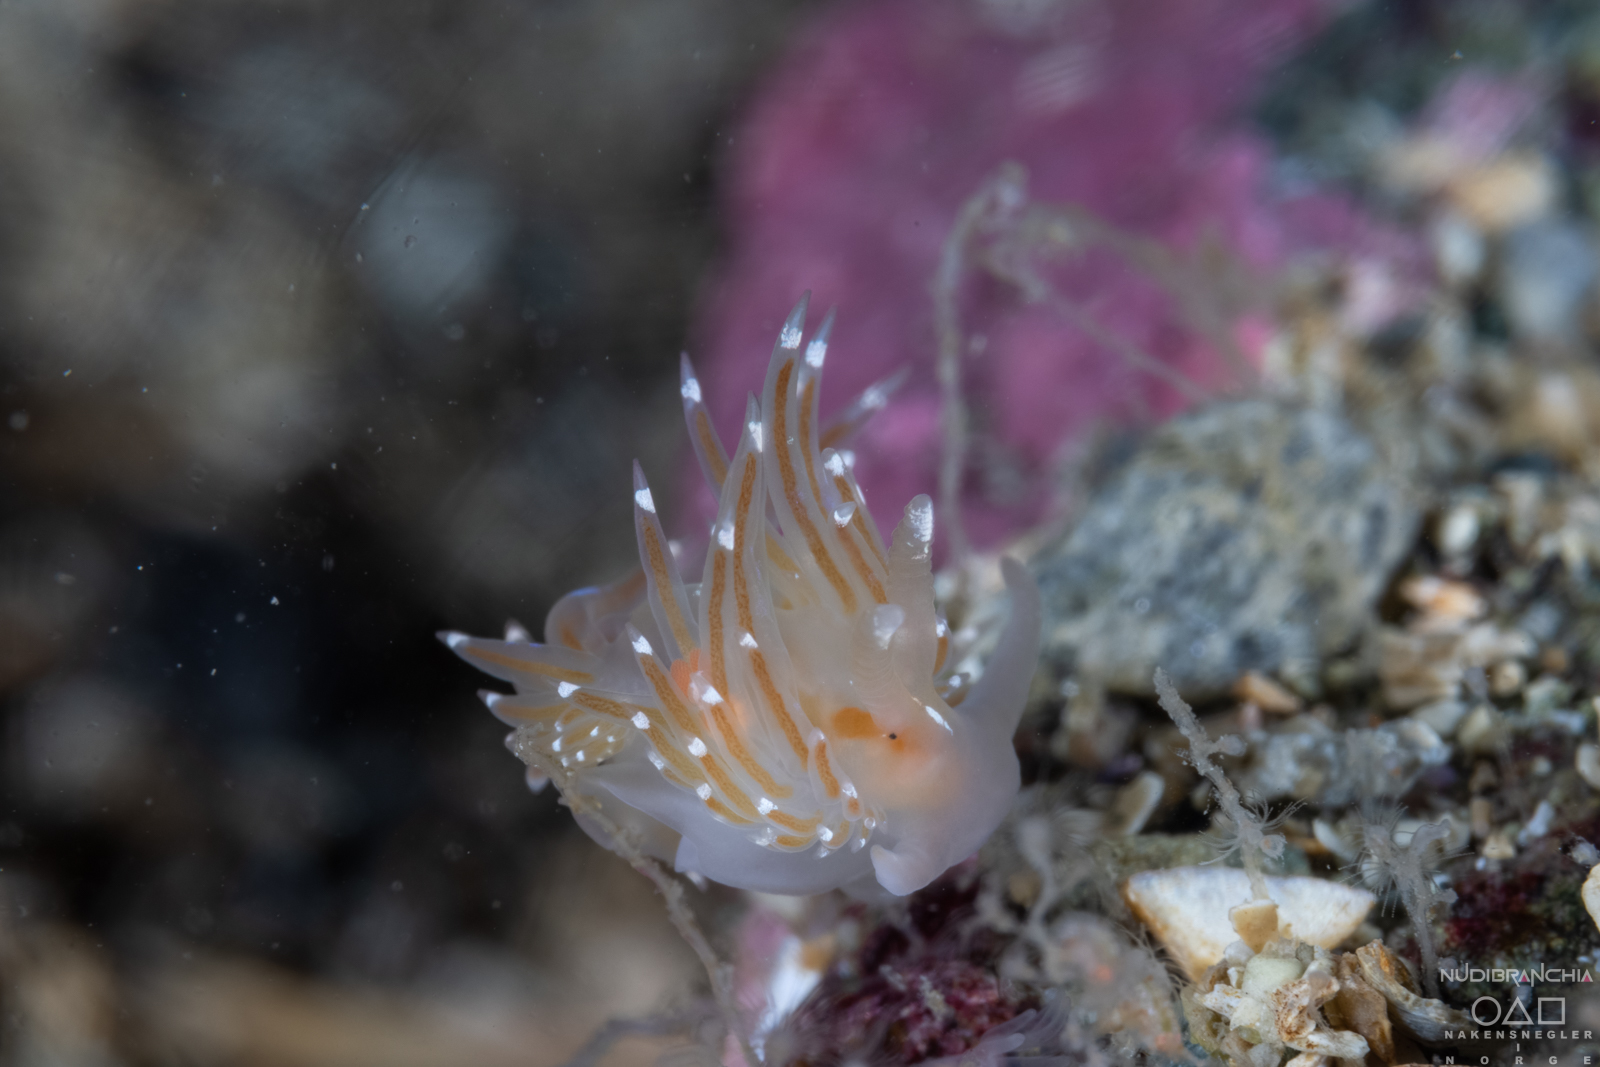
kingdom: Animalia
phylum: Mollusca
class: Gastropoda
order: Nudibranchia
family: Facelinidae
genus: Facelina
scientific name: Facelina bostoniensis
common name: Boston facelina
